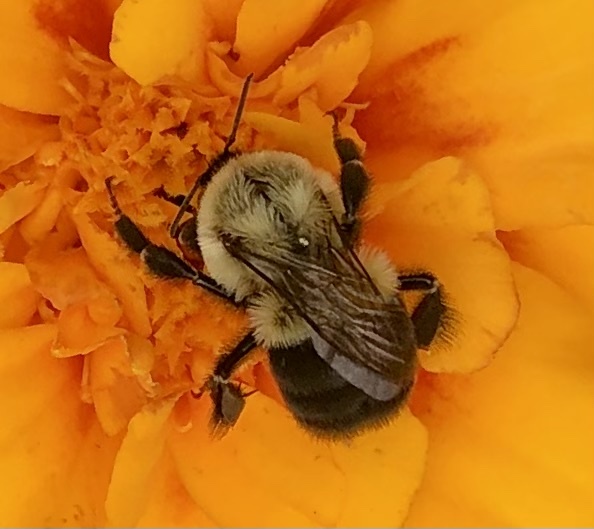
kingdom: Animalia
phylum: Arthropoda
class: Insecta
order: Hymenoptera
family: Apidae
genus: Bombus
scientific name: Bombus impatiens
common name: Common eastern bumble bee
